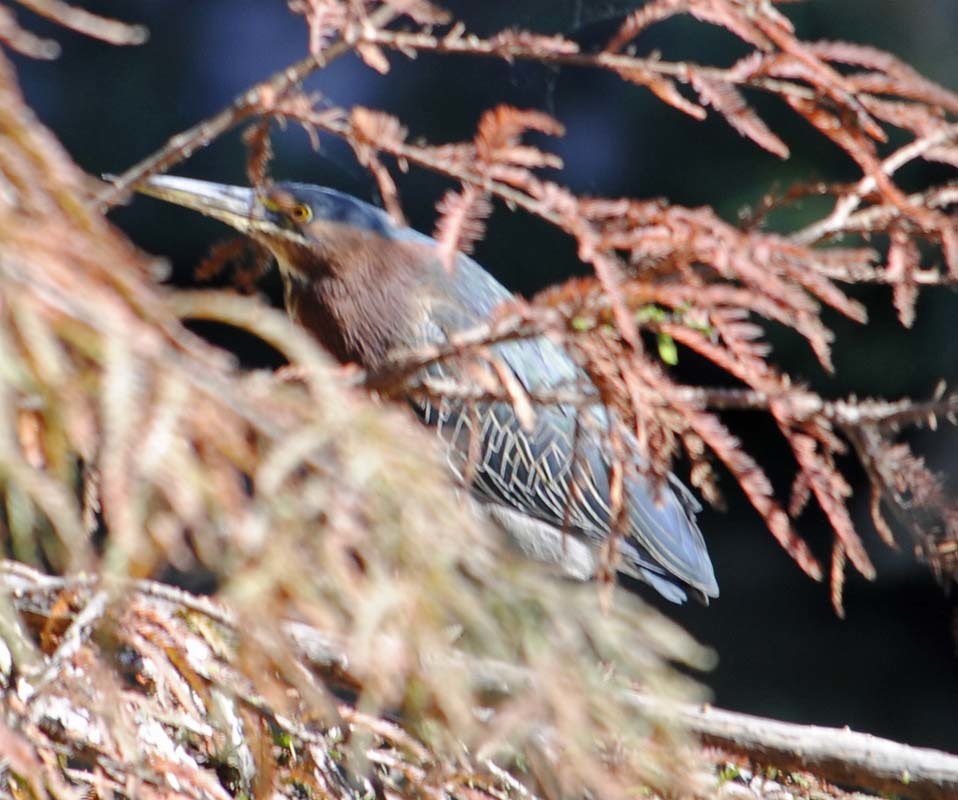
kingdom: Animalia
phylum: Chordata
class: Aves
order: Pelecaniformes
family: Ardeidae
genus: Butorides
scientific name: Butorides virescens
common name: Green heron
